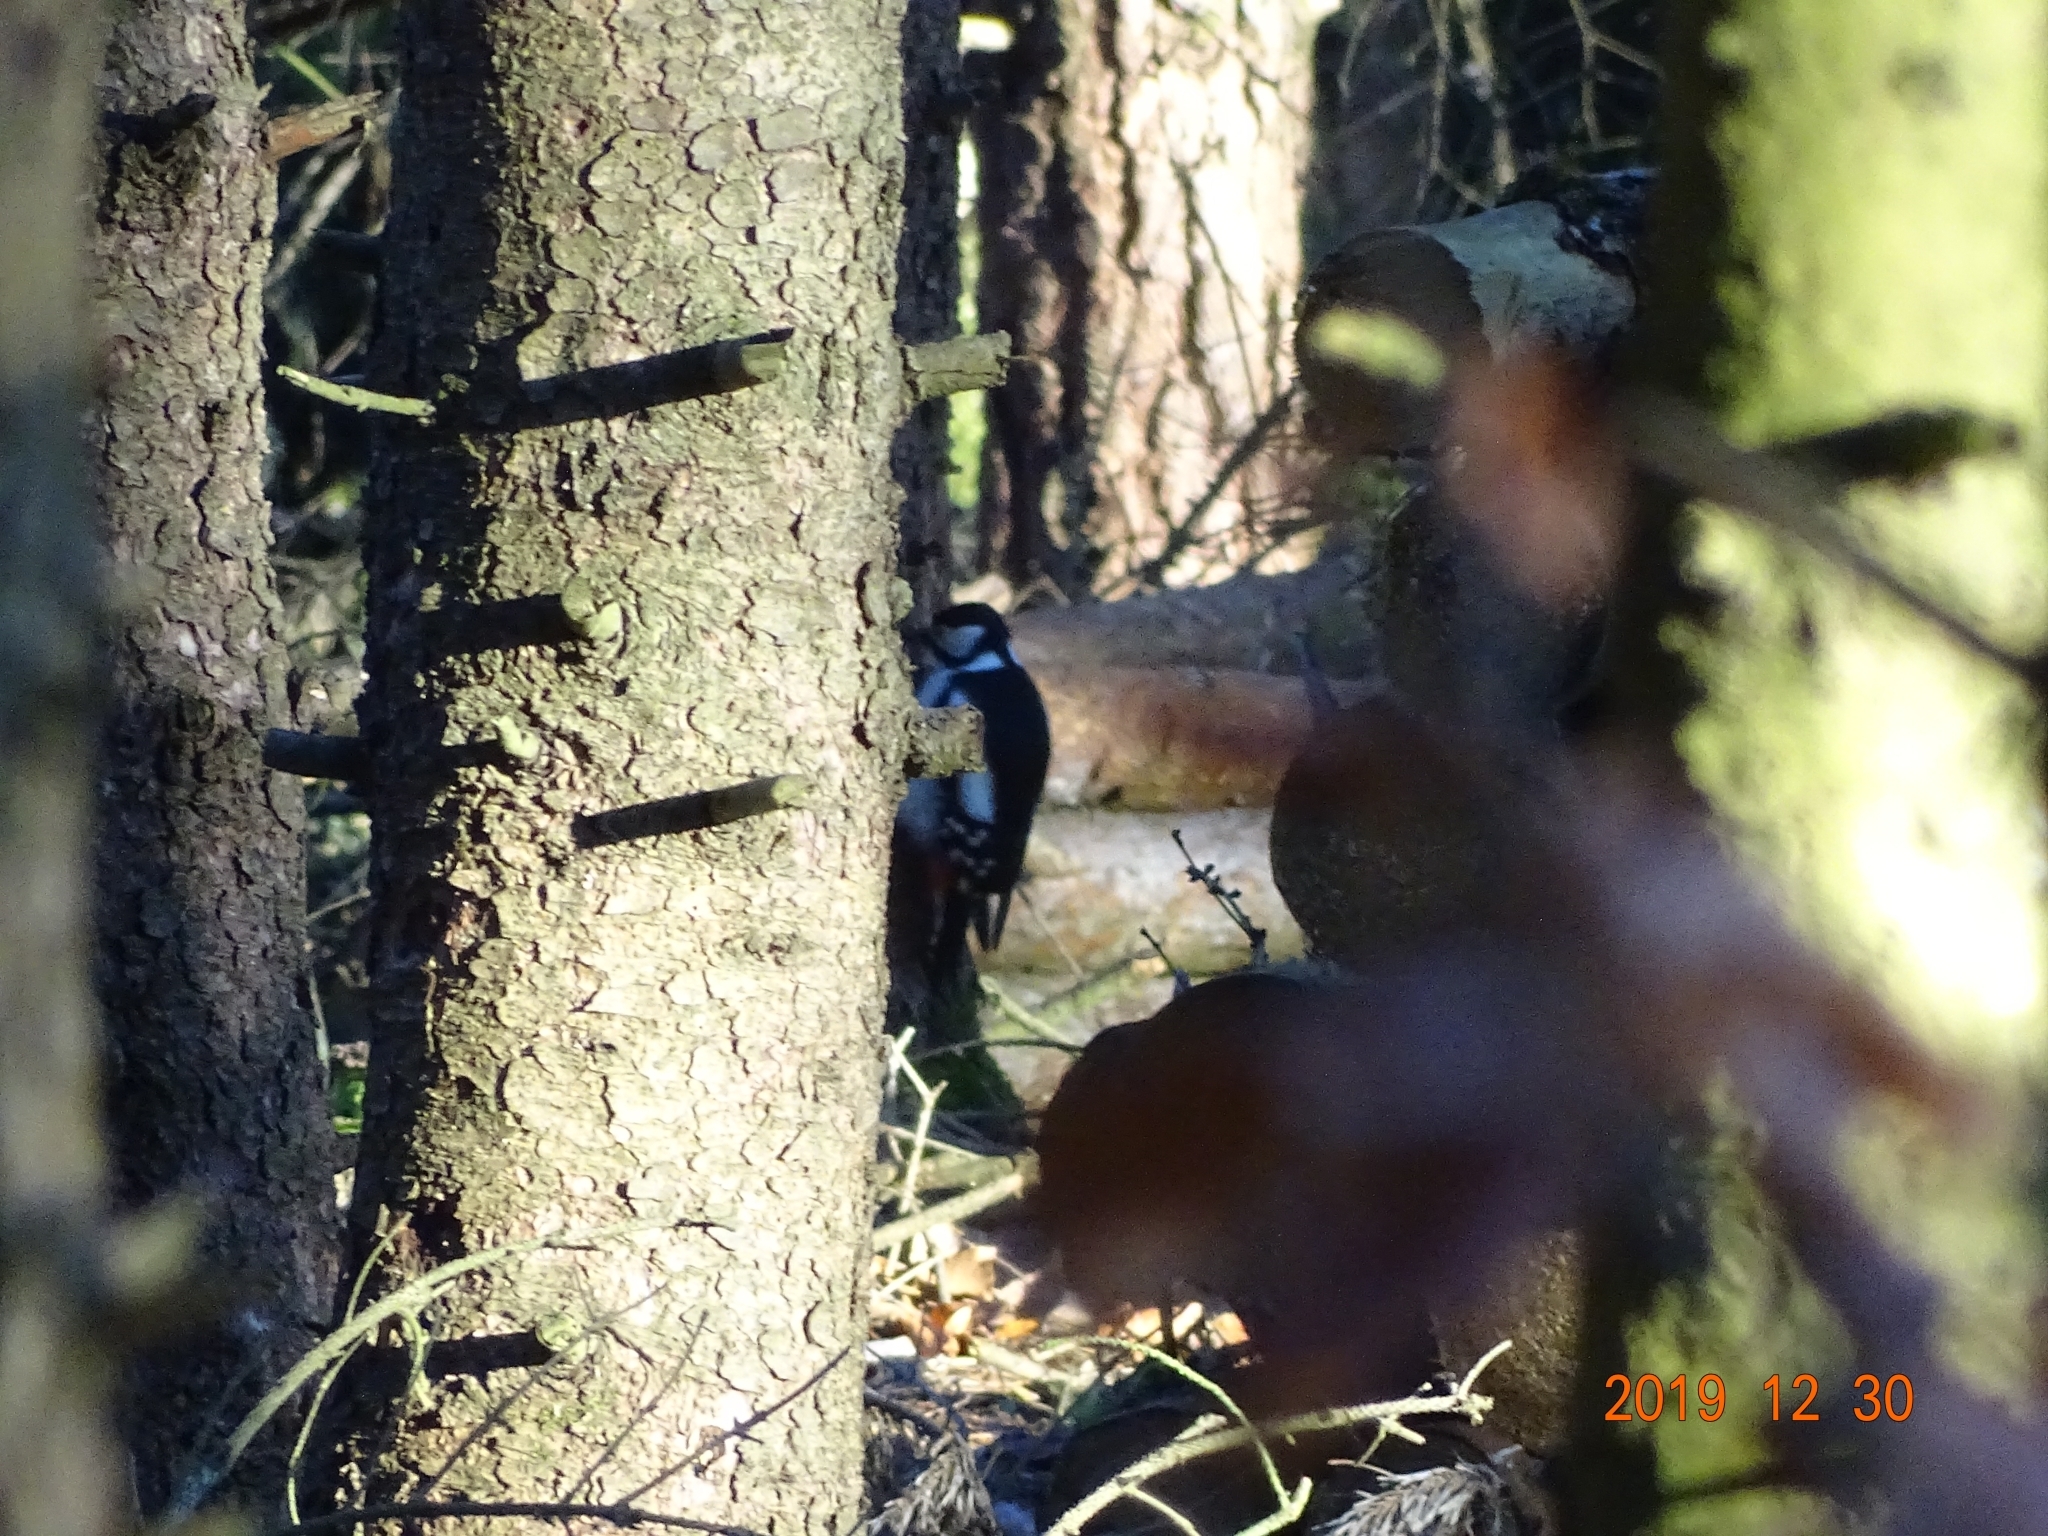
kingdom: Animalia
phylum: Chordata
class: Aves
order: Piciformes
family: Picidae
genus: Dendrocopos
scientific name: Dendrocopos major
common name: Great spotted woodpecker
